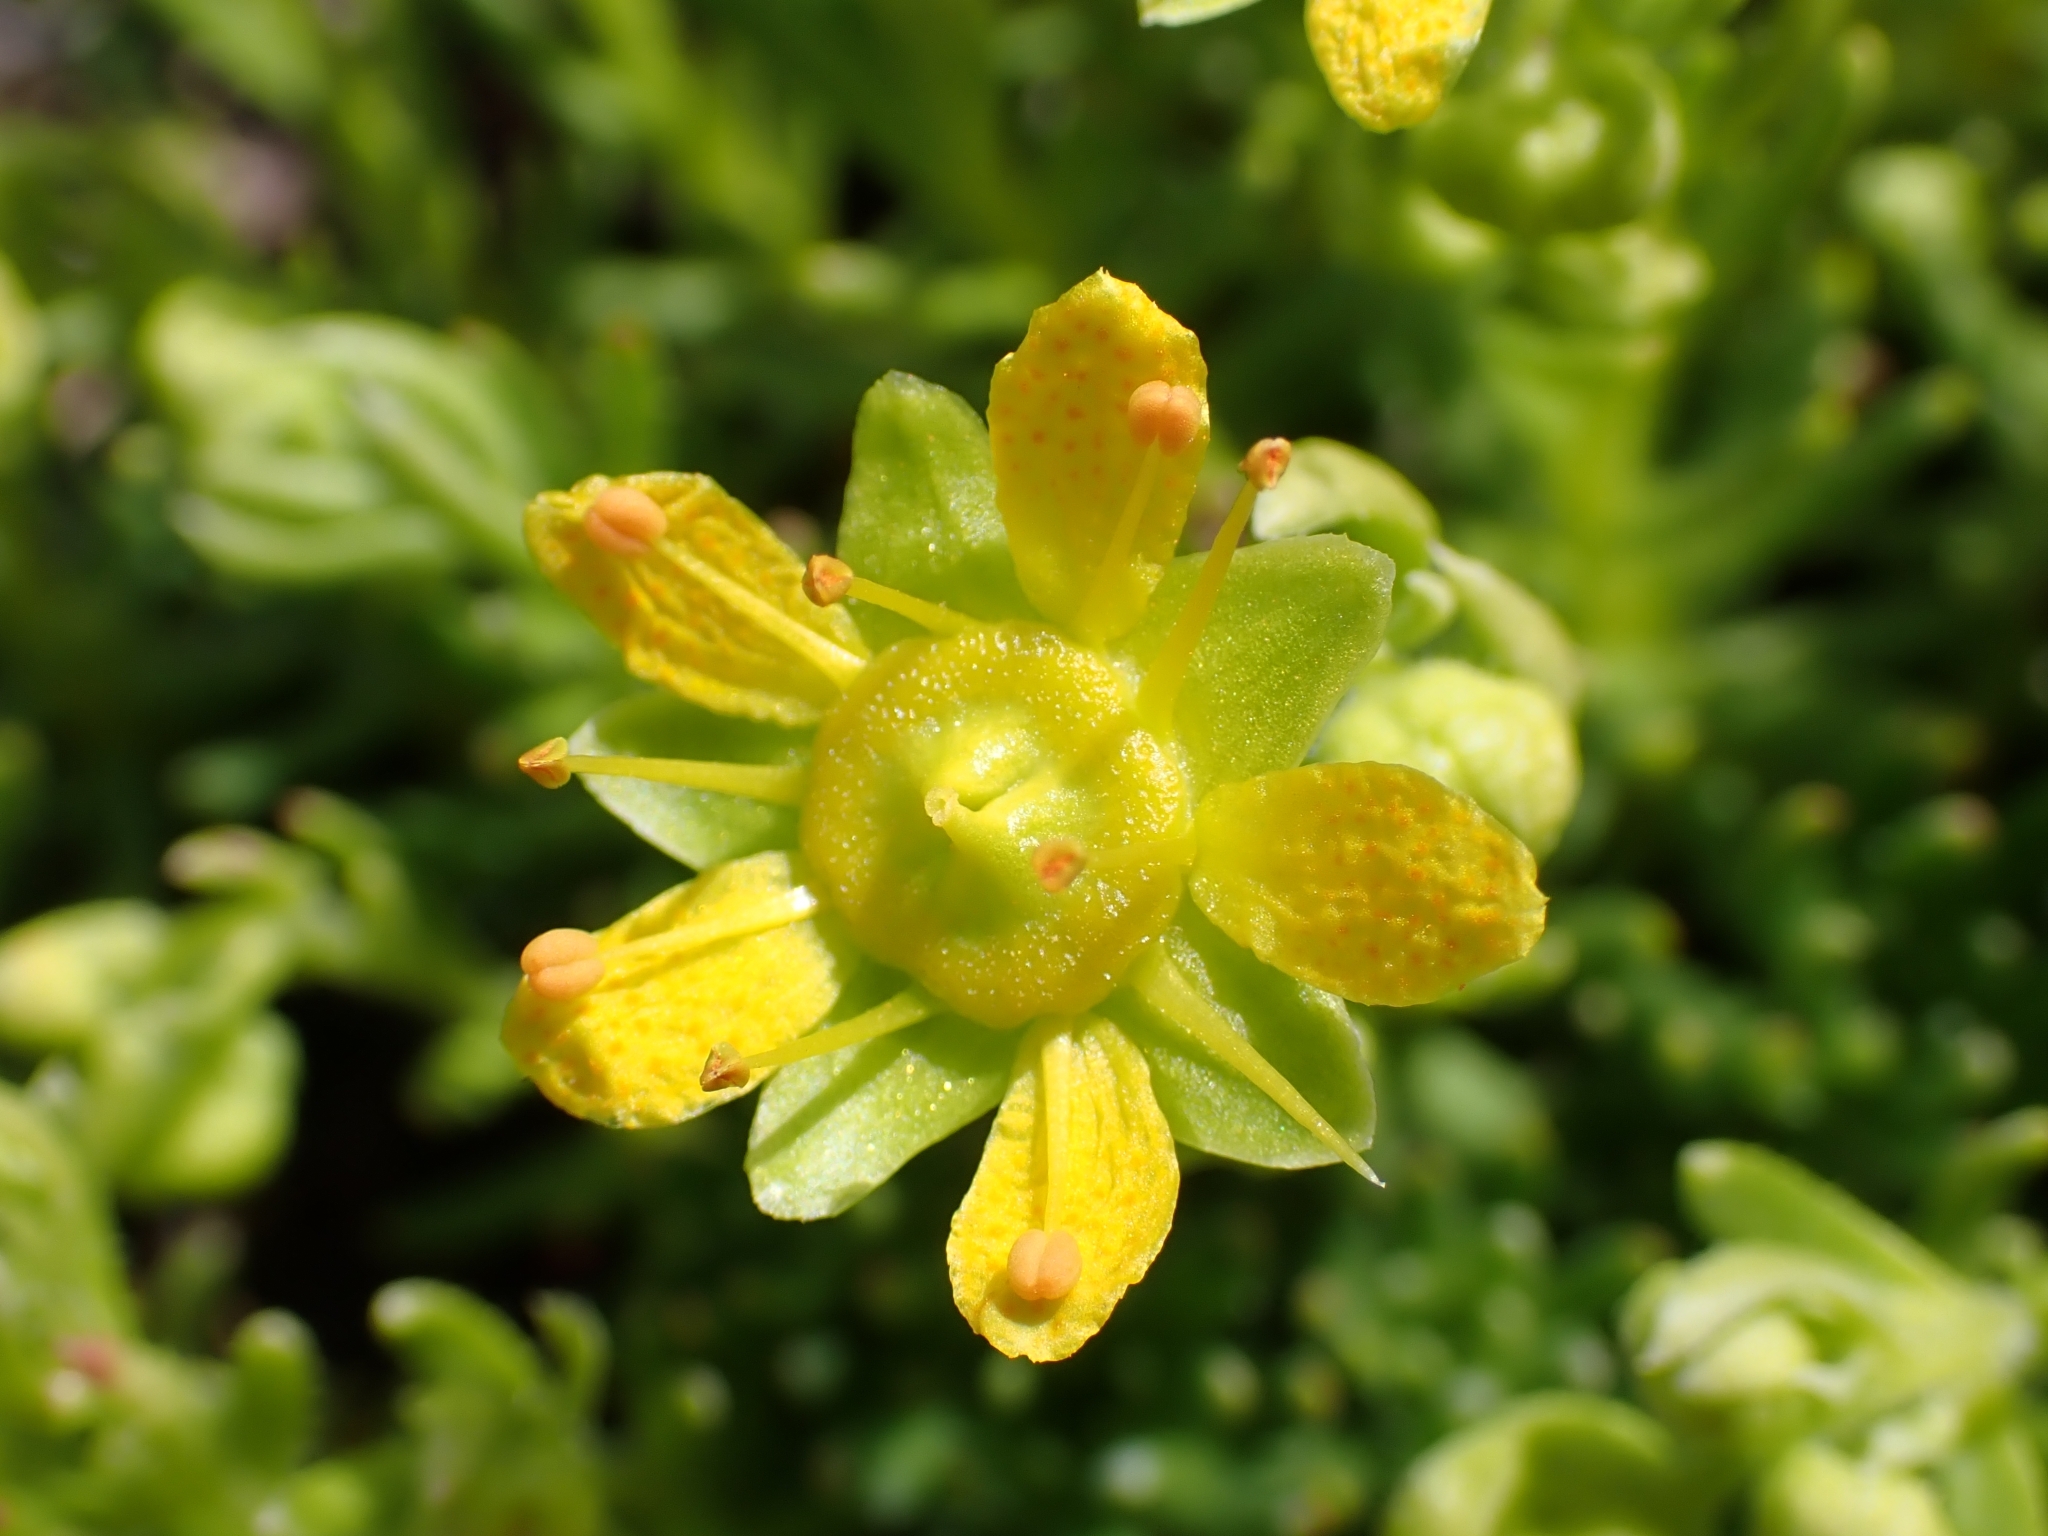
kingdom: Plantae
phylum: Tracheophyta
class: Magnoliopsida
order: Saxifragales
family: Saxifragaceae
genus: Saxifraga
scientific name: Saxifraga aizoides
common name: Yellow mountain saxifrage
